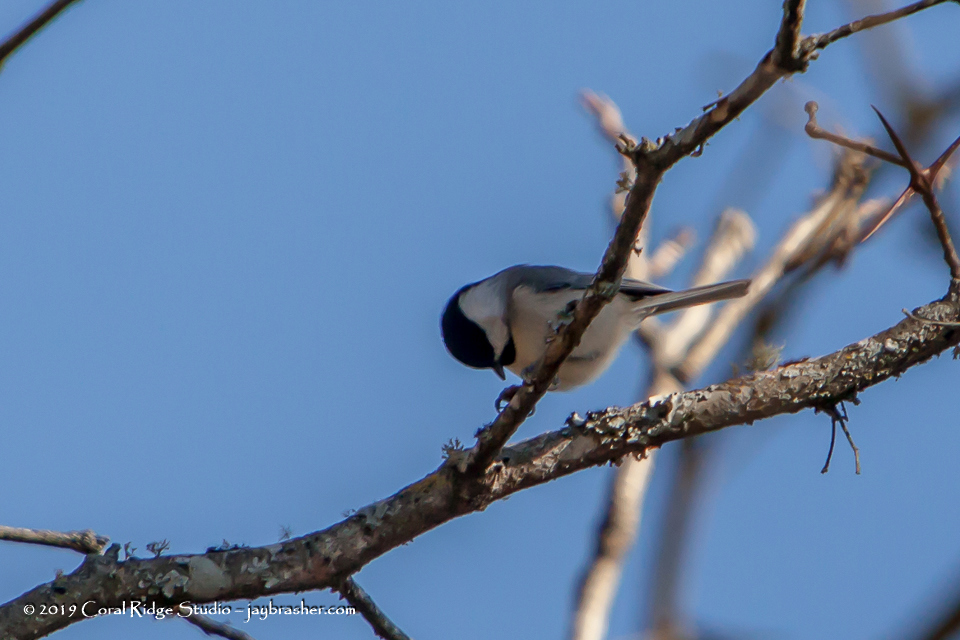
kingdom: Animalia
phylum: Chordata
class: Aves
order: Passeriformes
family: Paridae
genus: Poecile
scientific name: Poecile carolinensis
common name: Carolina chickadee
